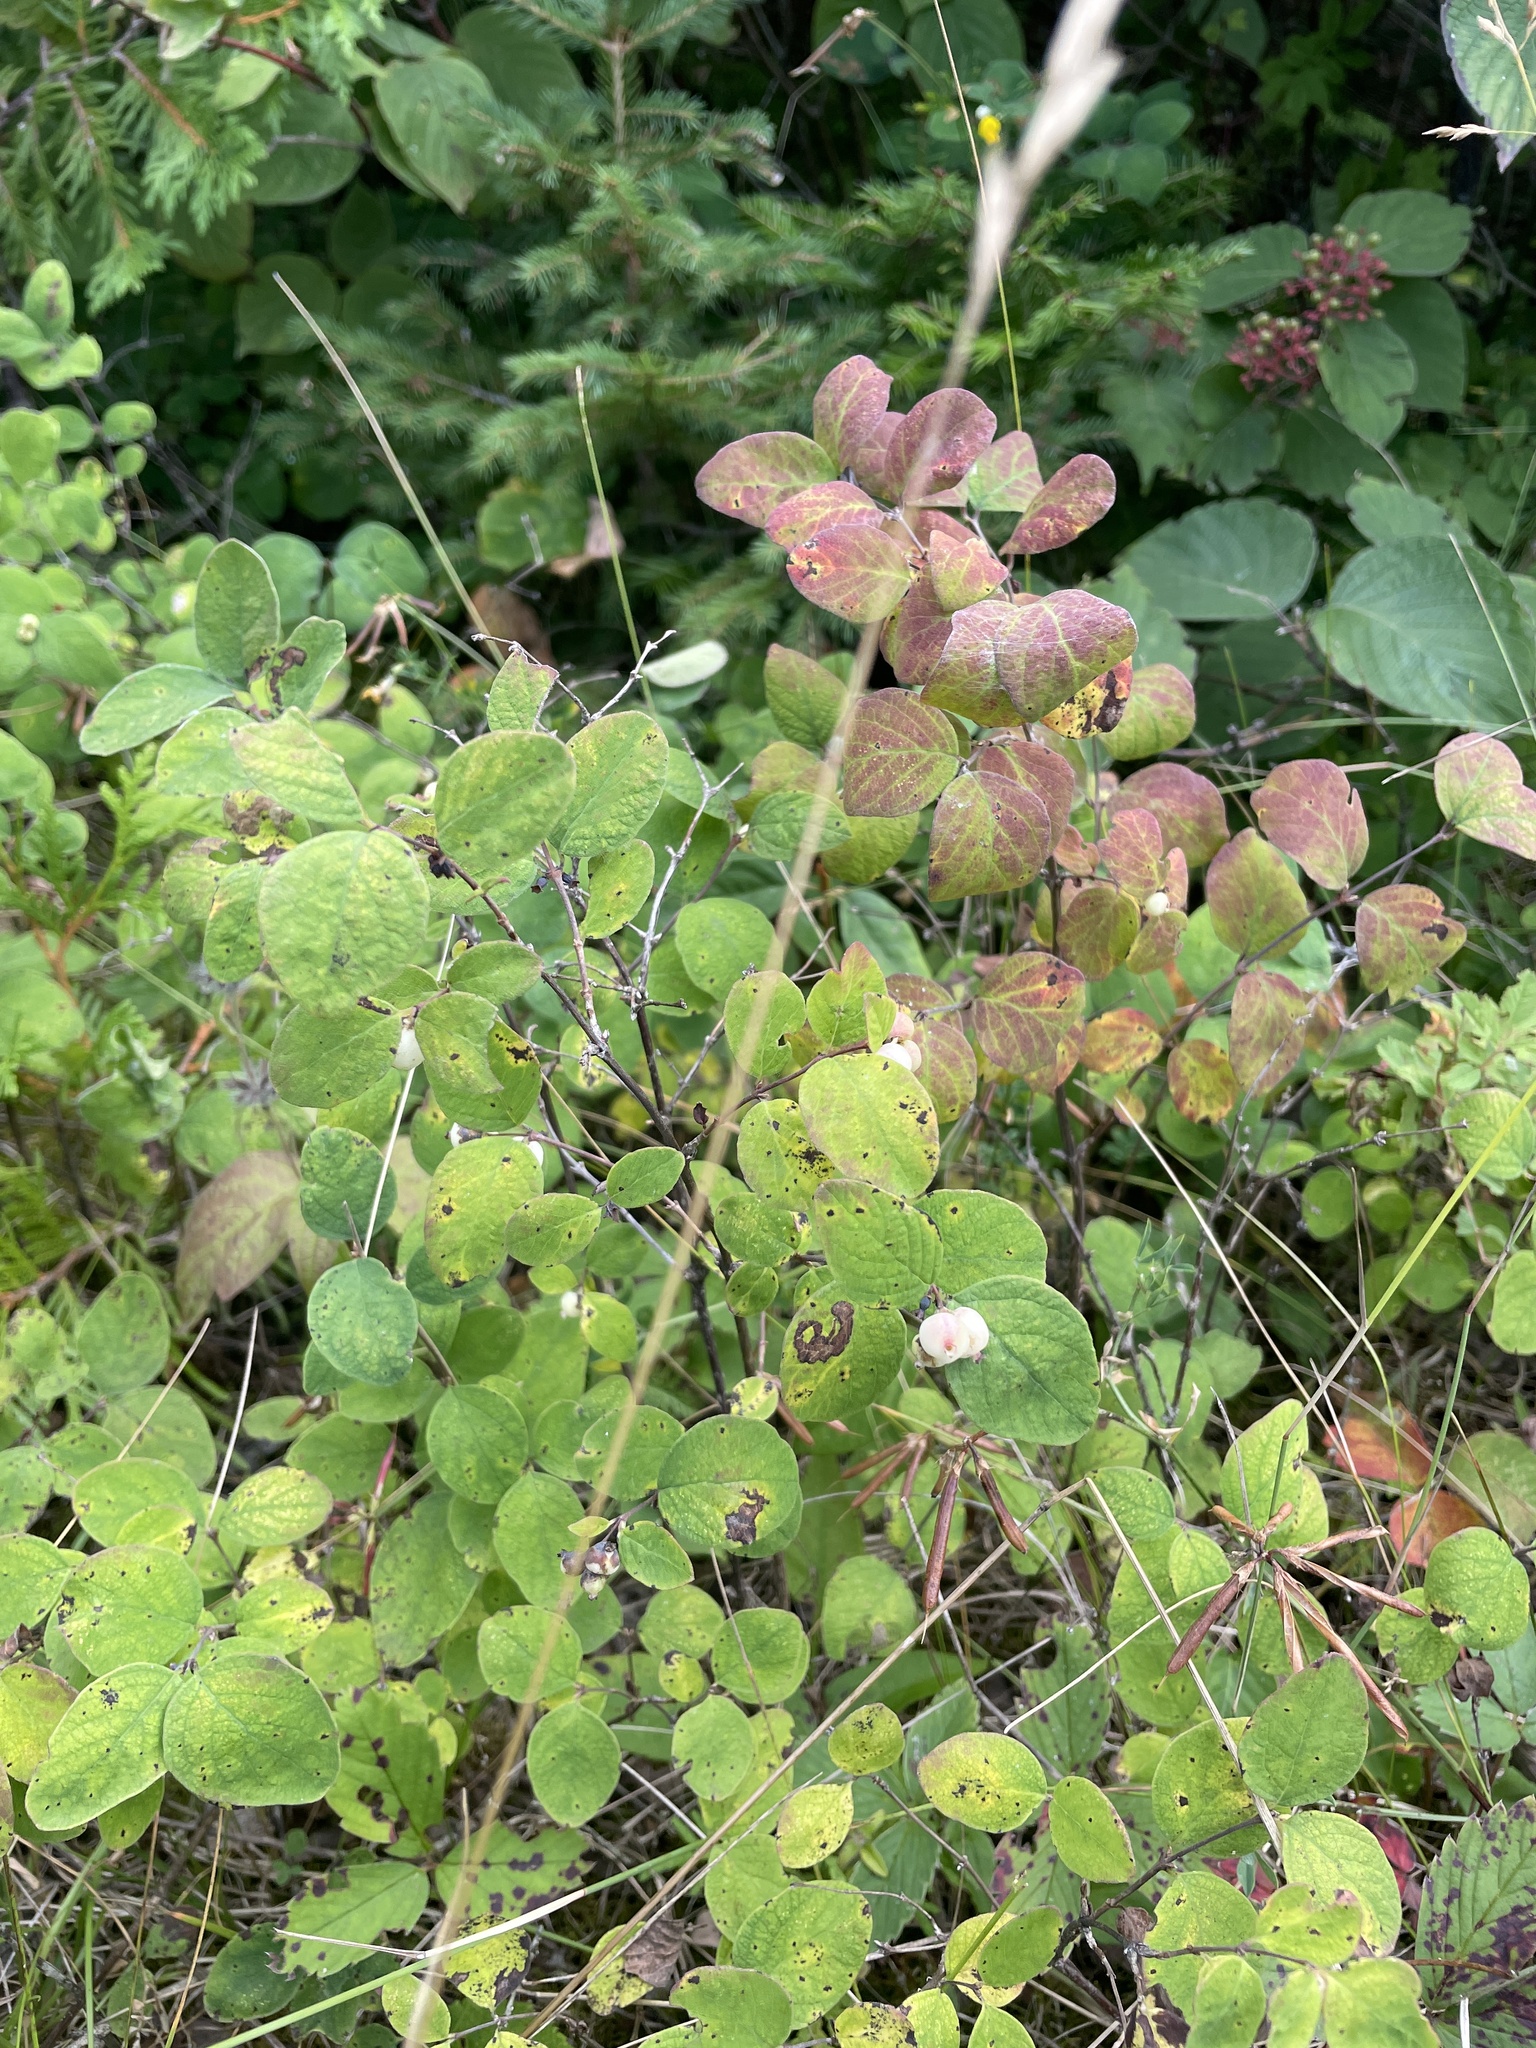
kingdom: Plantae
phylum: Tracheophyta
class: Magnoliopsida
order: Dipsacales
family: Caprifoliaceae
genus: Symphoricarpos
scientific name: Symphoricarpos albus
